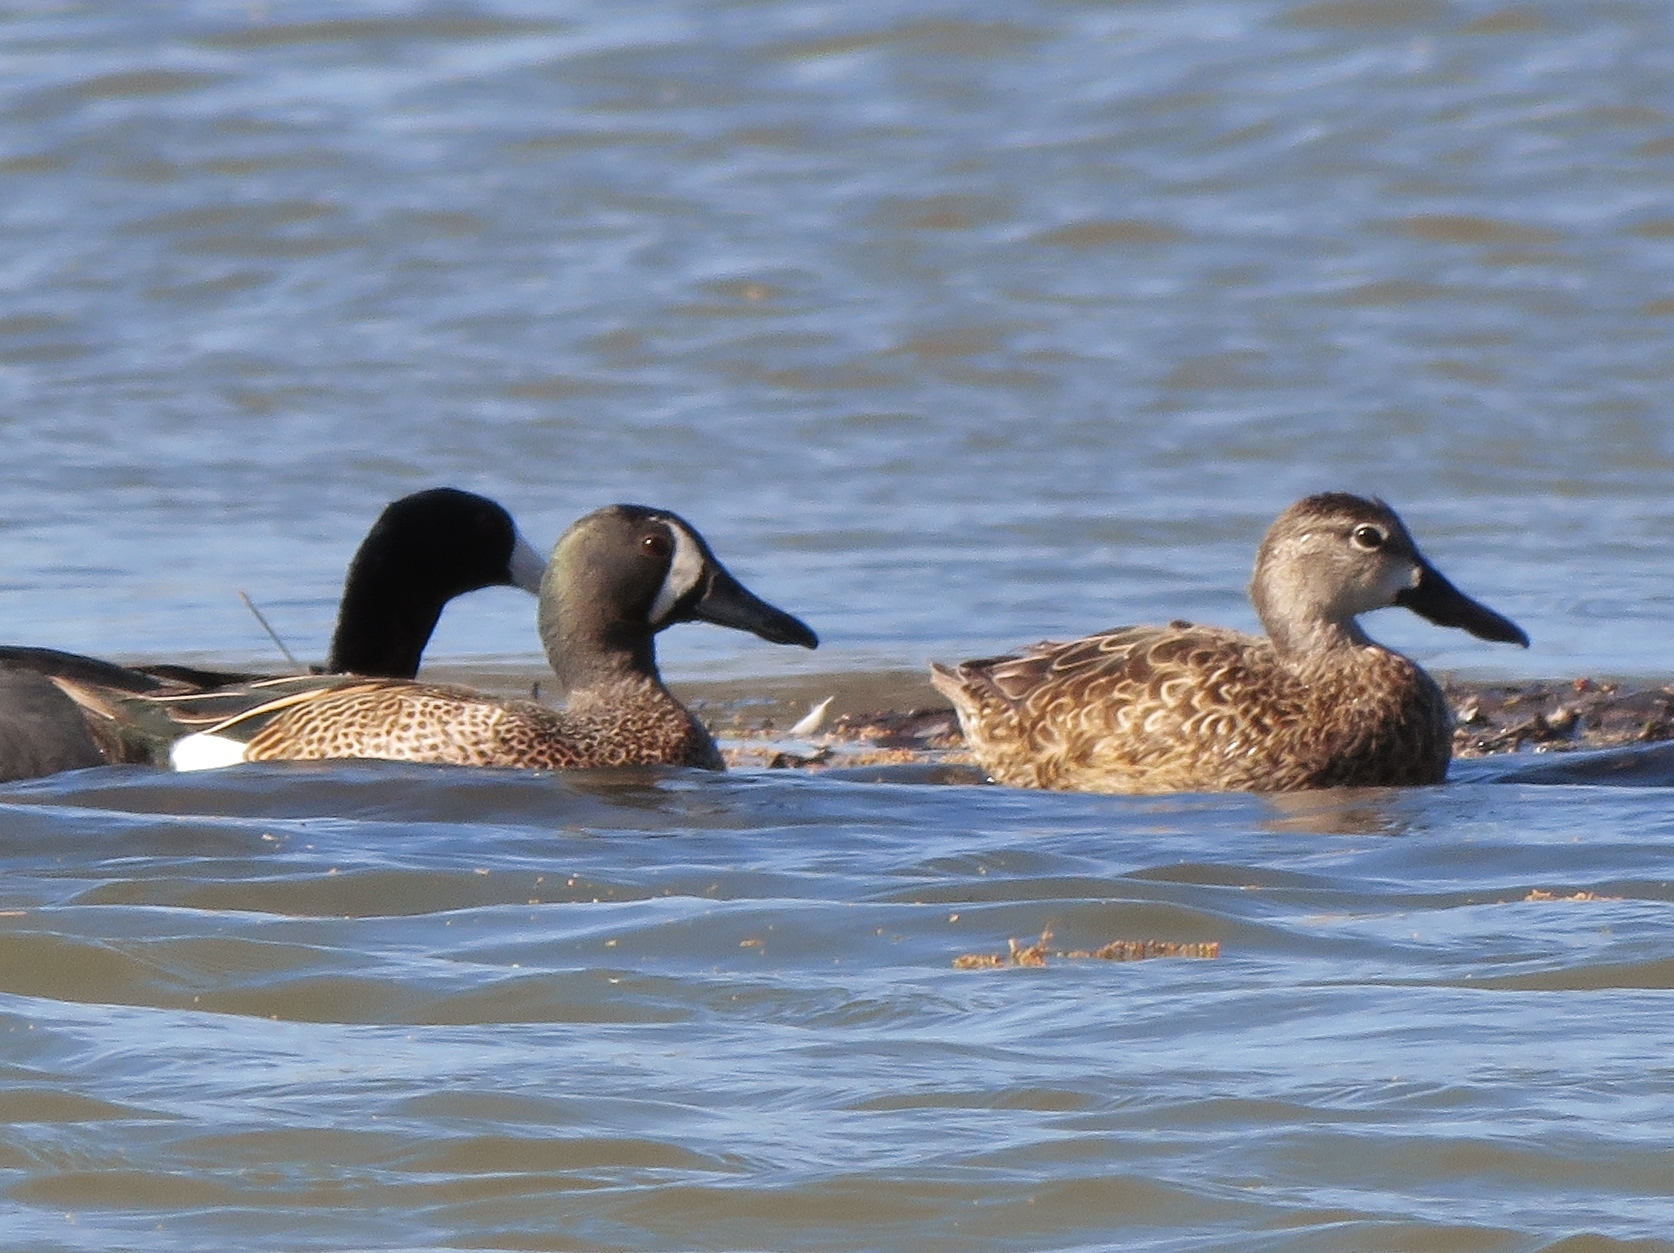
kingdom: Animalia
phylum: Chordata
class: Aves
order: Anseriformes
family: Anatidae
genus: Spatula
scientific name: Spatula discors
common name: Blue-winged teal
